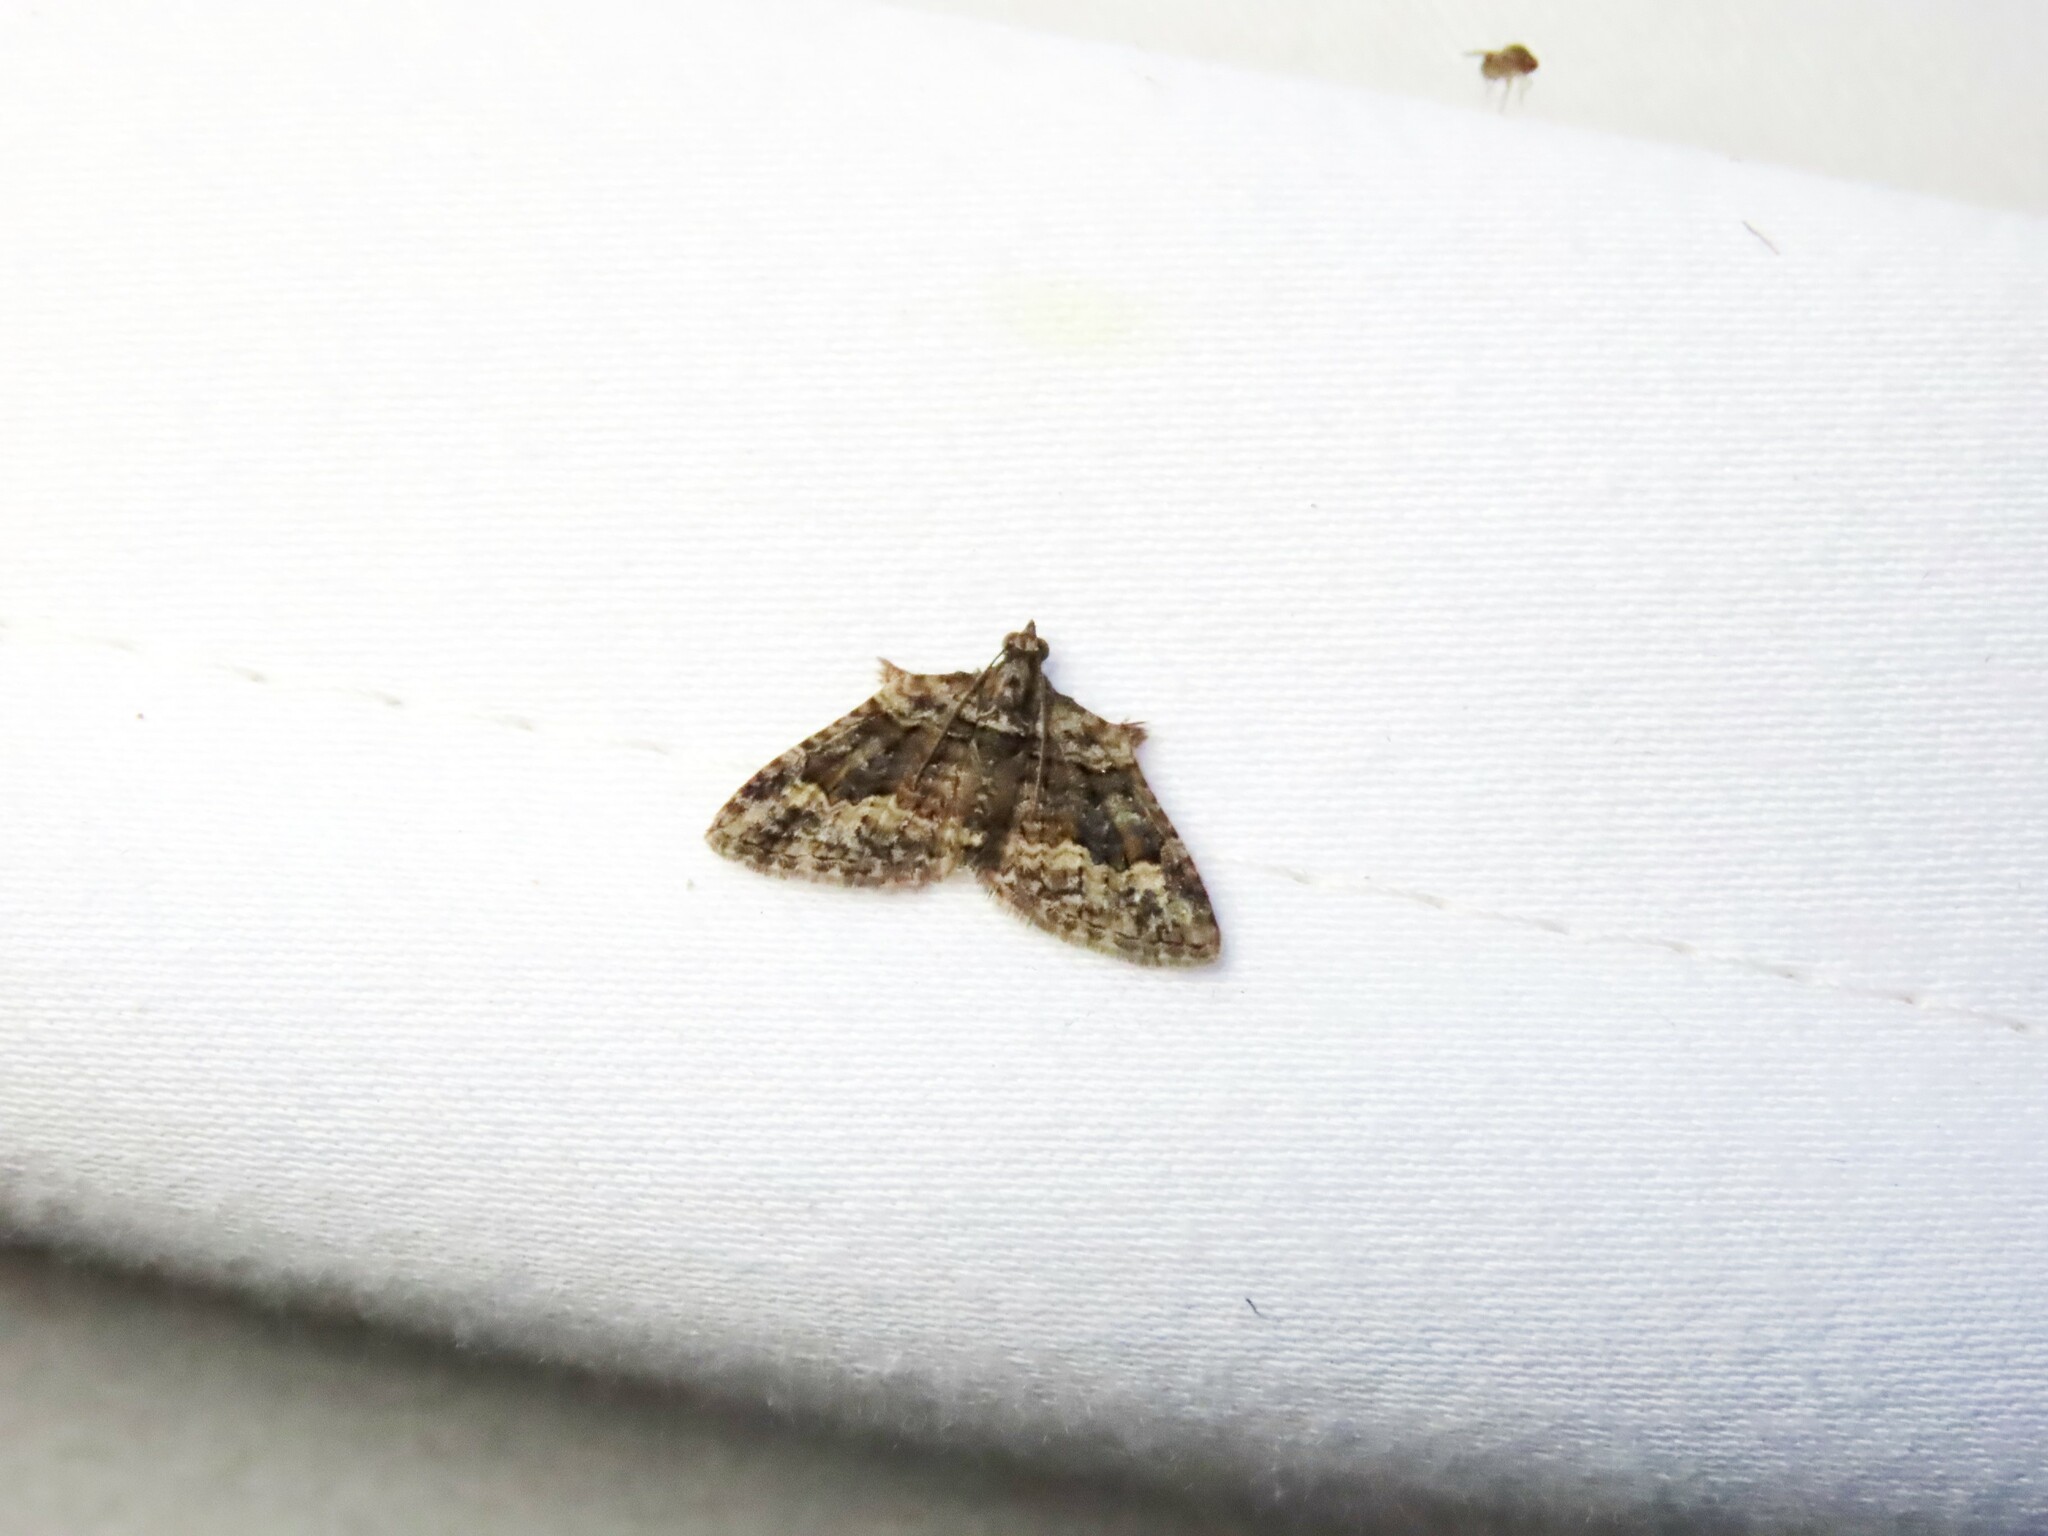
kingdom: Animalia
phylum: Arthropoda
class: Insecta
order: Lepidoptera
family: Geometridae
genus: Phrissogonus
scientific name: Phrissogonus laticostata
